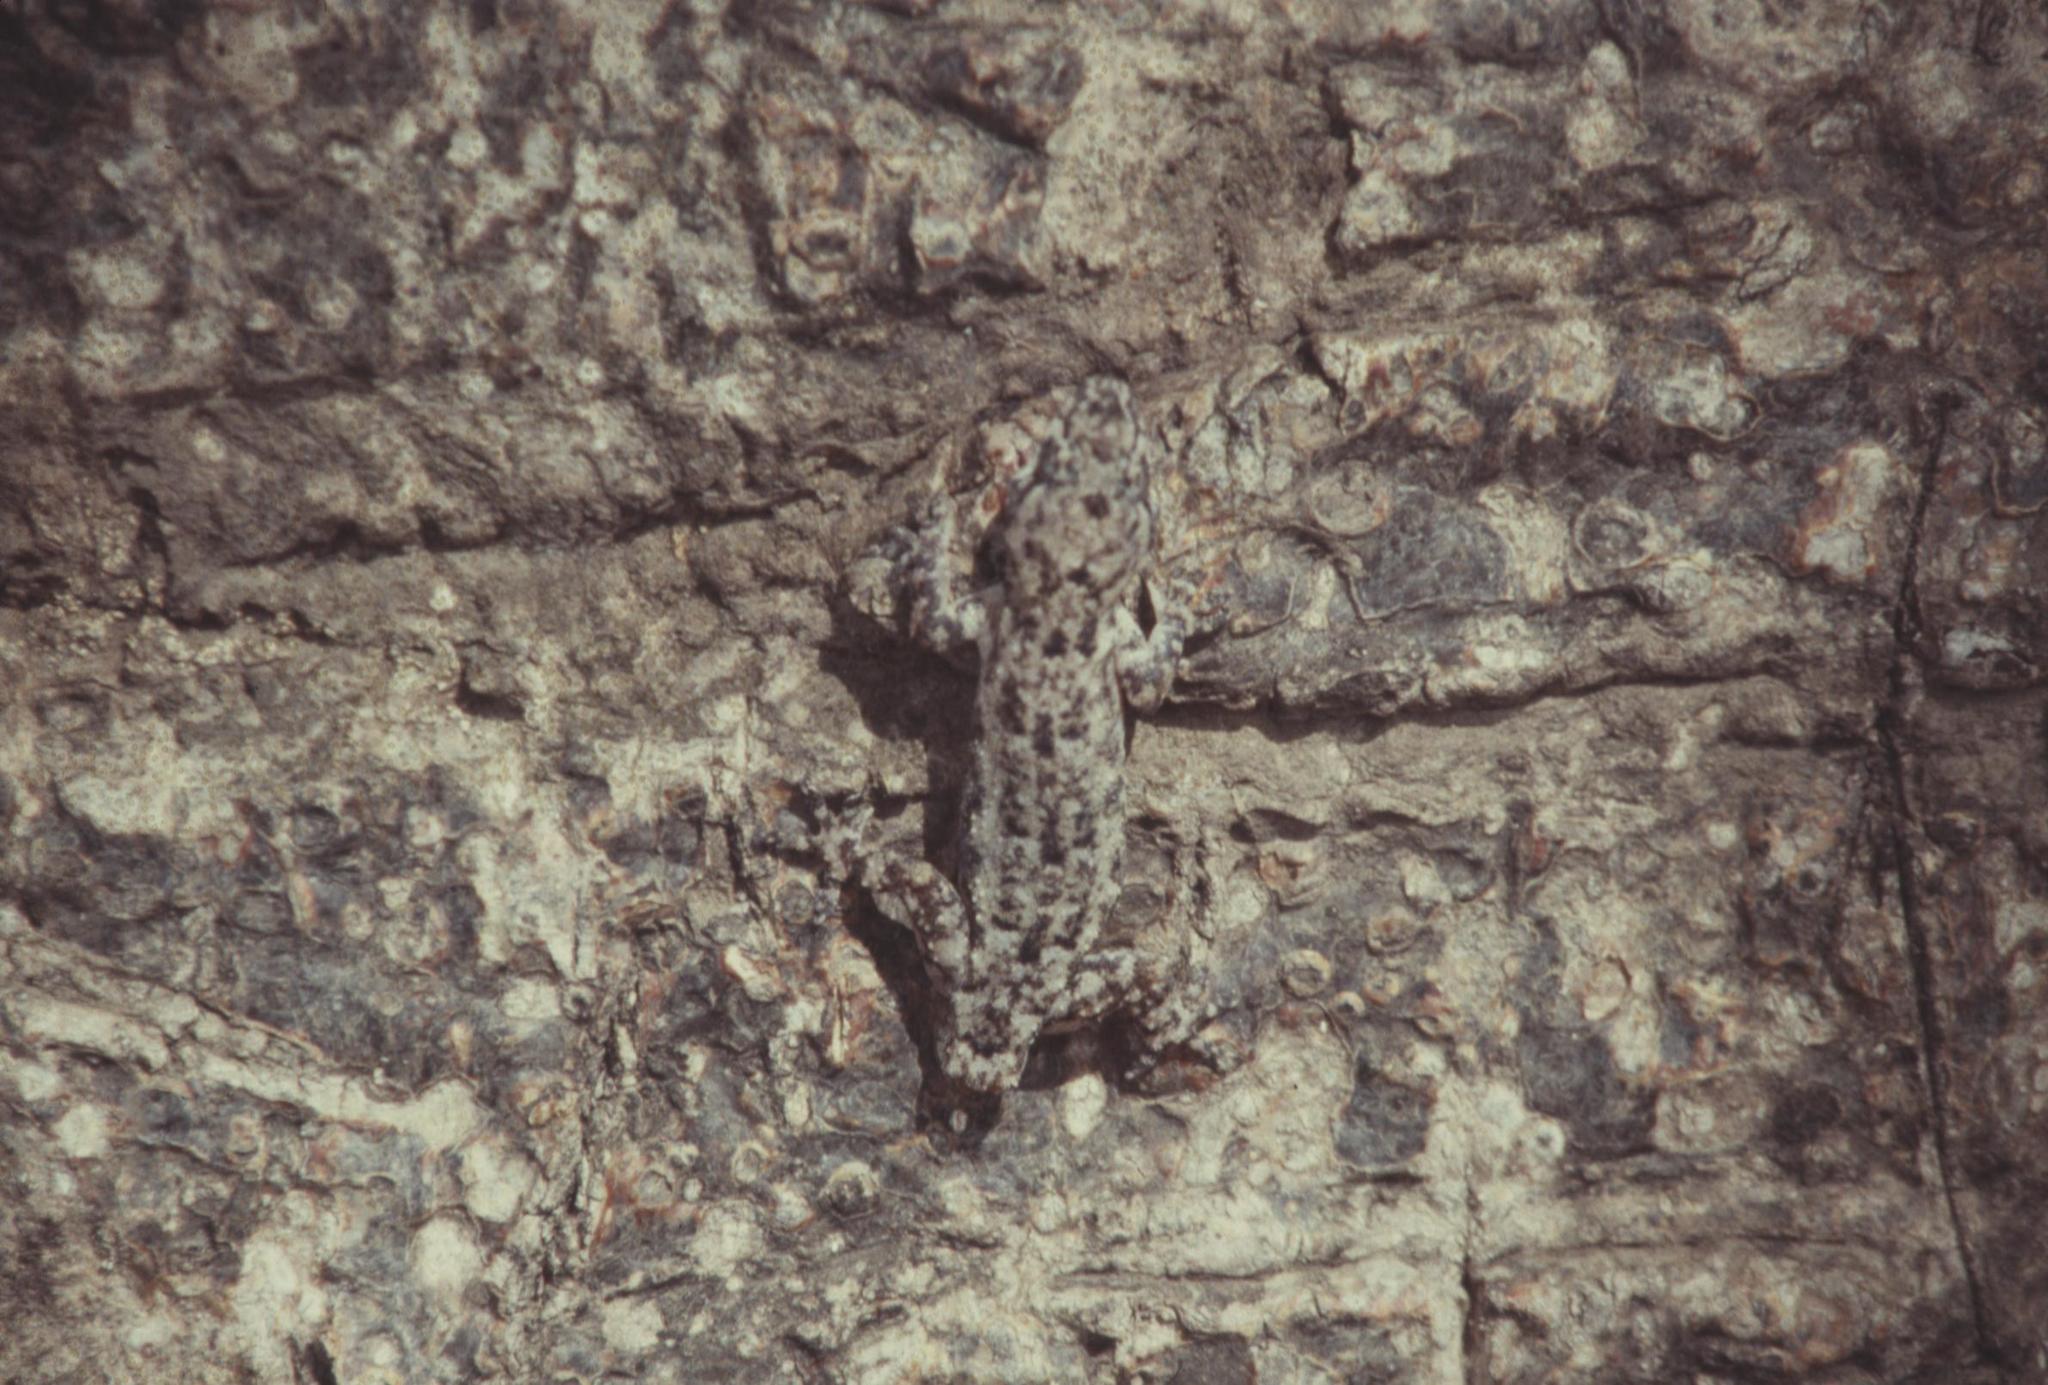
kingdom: Animalia
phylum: Chordata
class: Squamata
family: Gekkonidae
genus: Hemidactylus
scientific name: Hemidactylus platycephalus
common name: Baobab gecko
